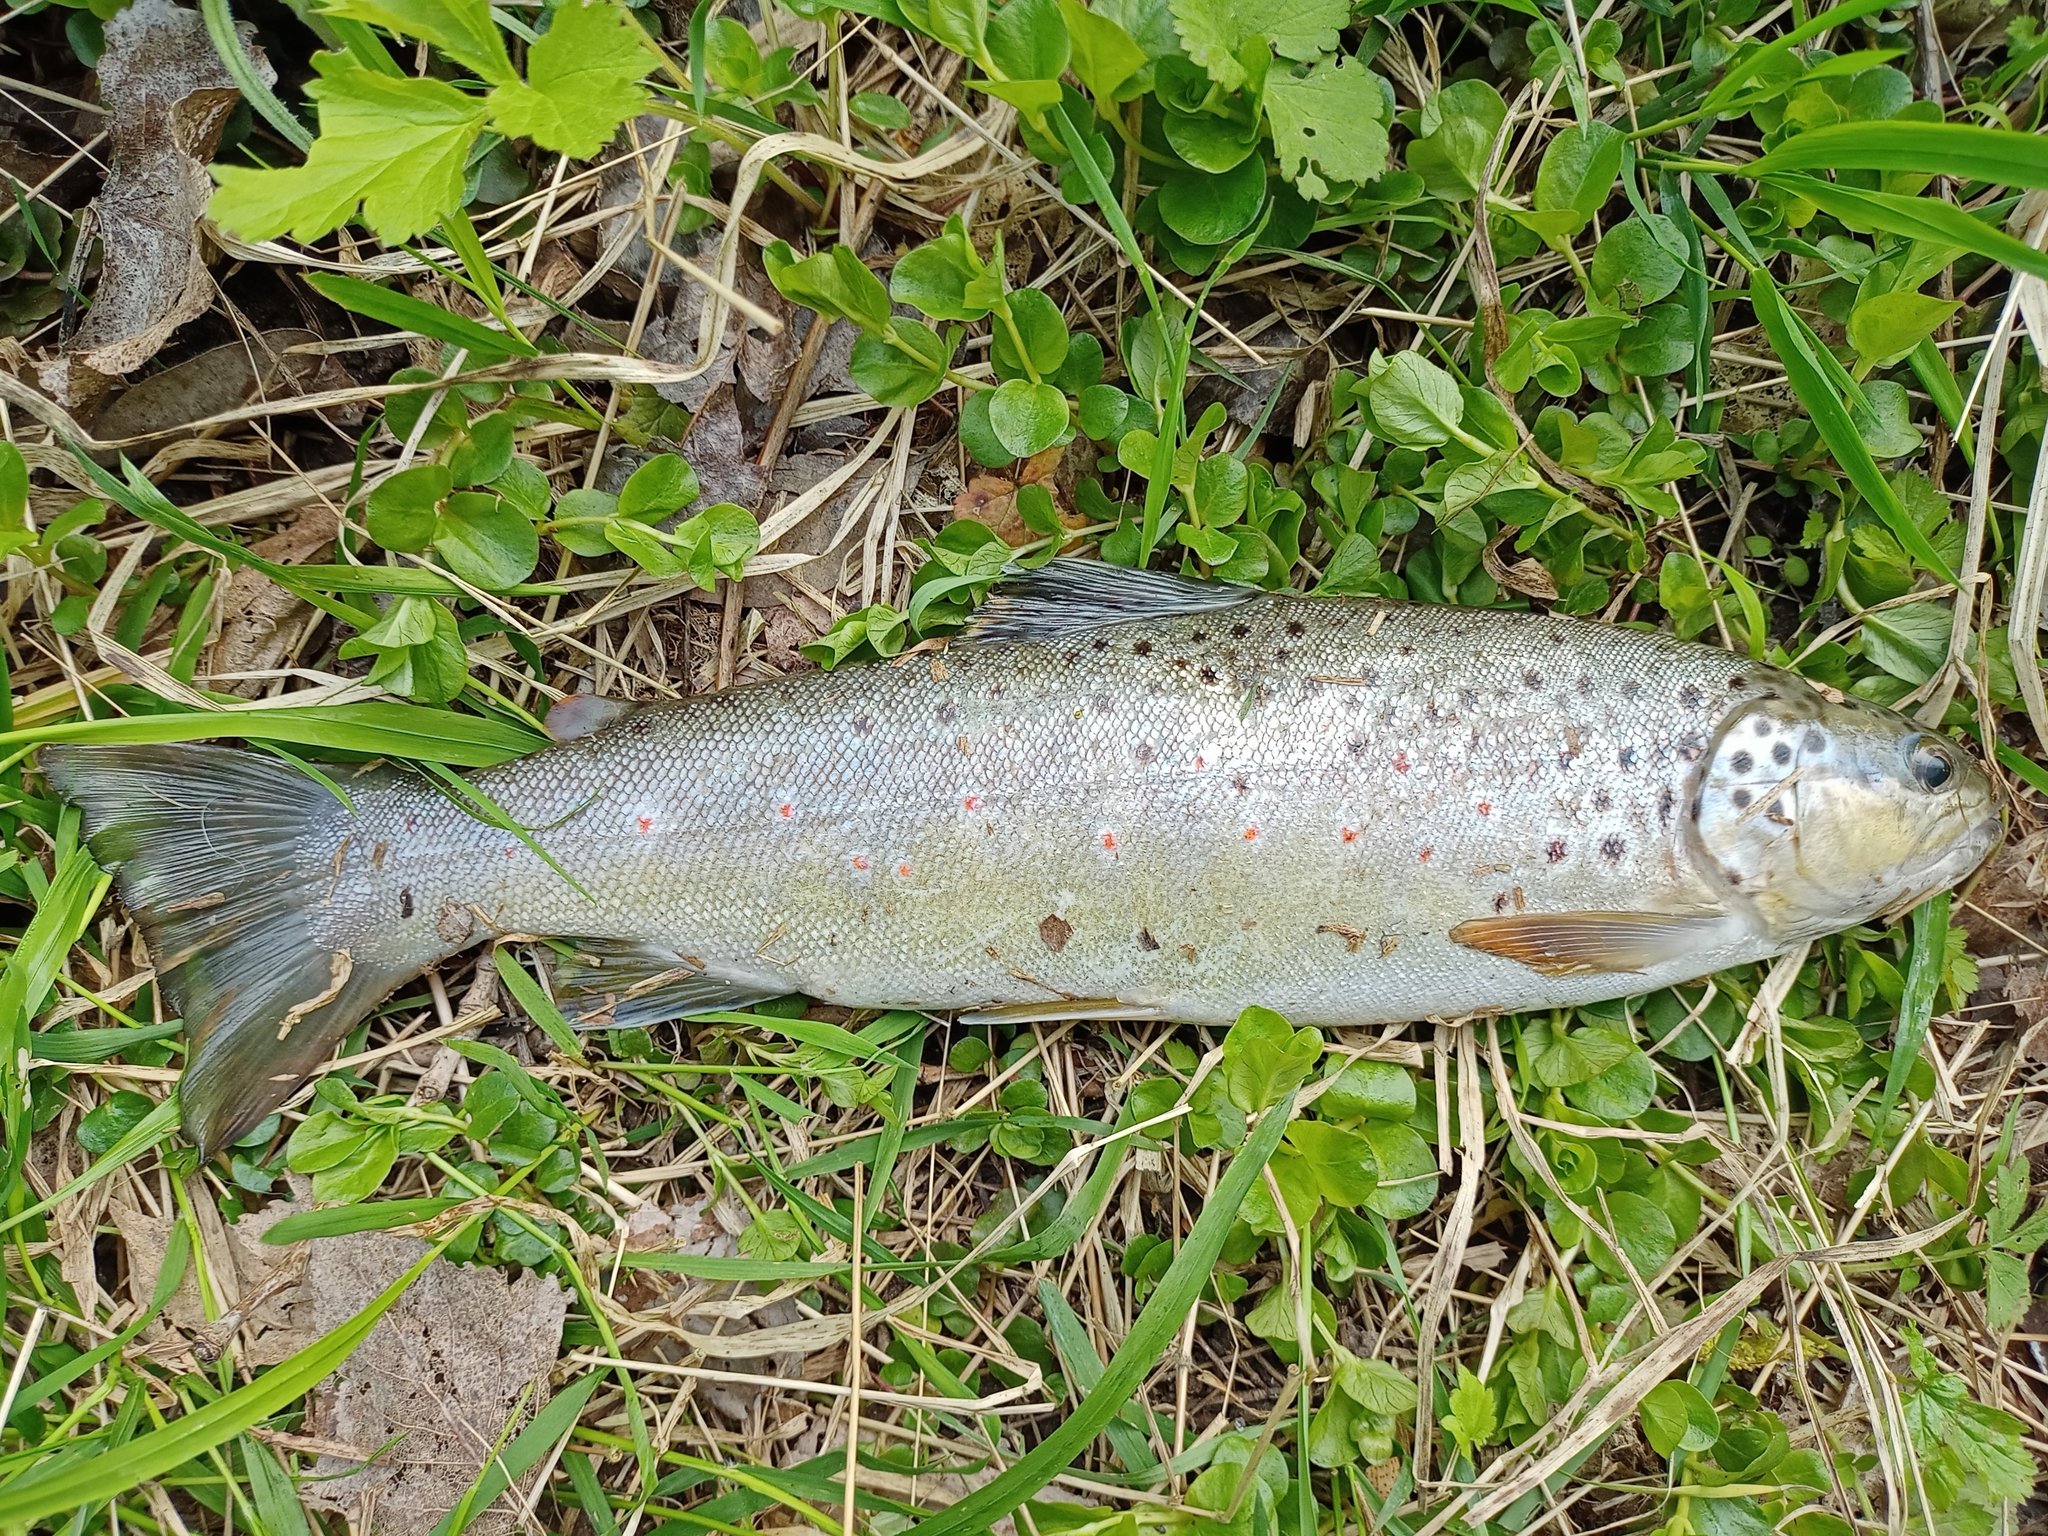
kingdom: Animalia
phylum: Chordata
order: Salmoniformes
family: Salmonidae
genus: Salmo
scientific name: Salmo trutta
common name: Brown trout
